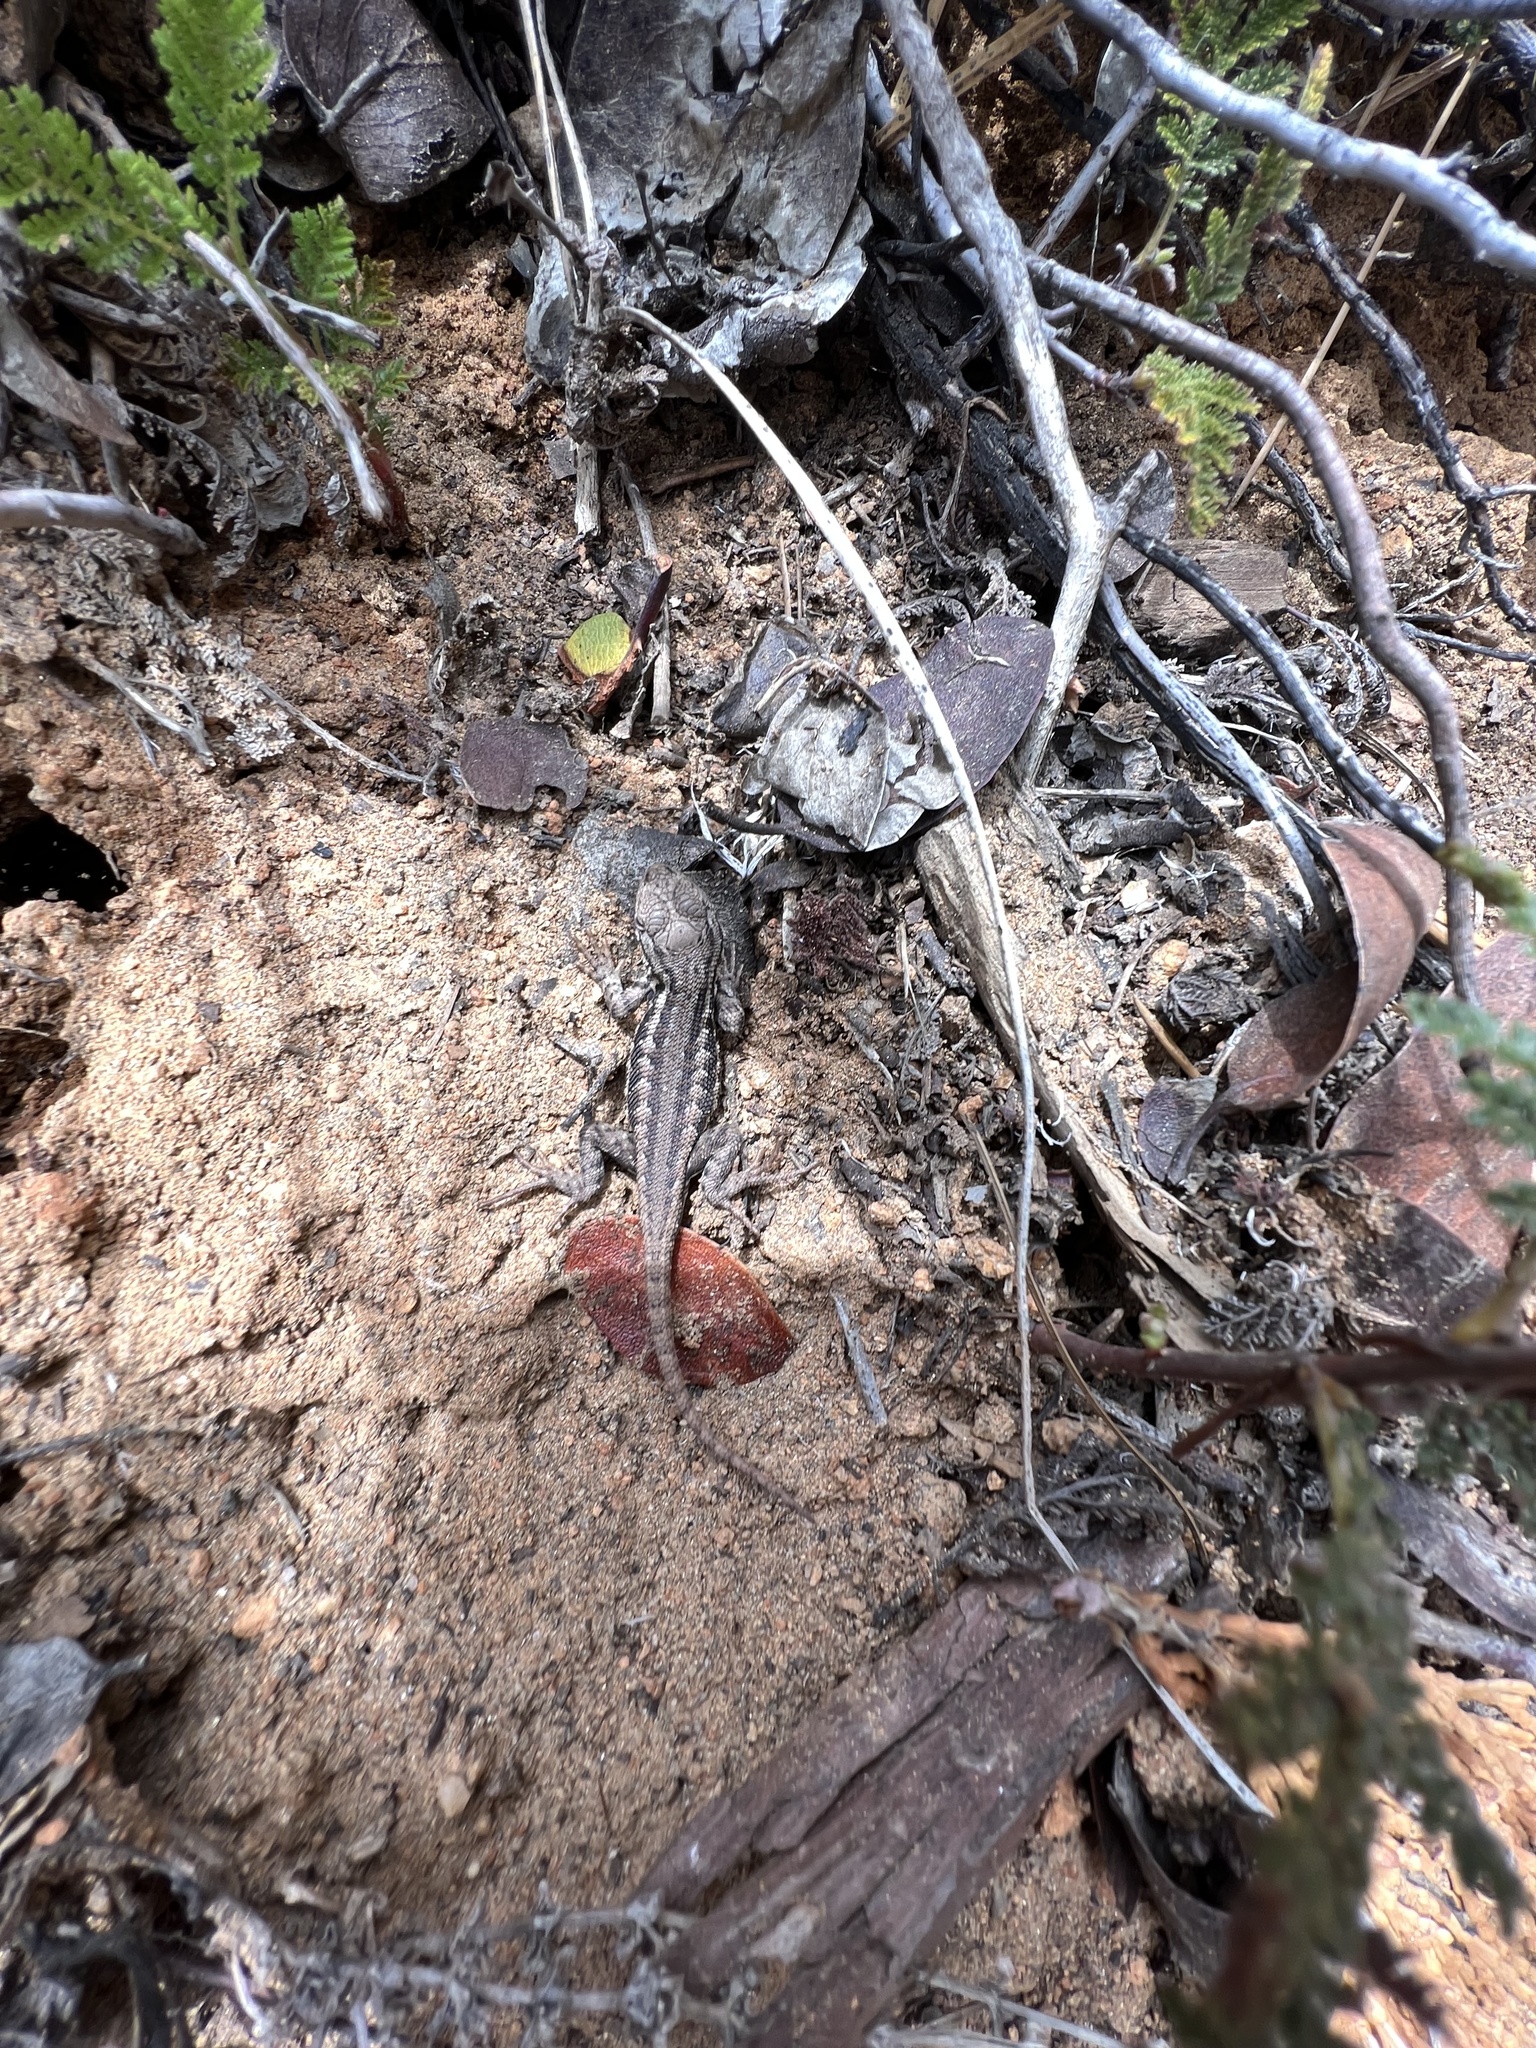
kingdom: Animalia
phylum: Chordata
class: Squamata
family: Phrynosomatidae
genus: Sceloporus
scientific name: Sceloporus graciosus
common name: Sagebrush lizard
